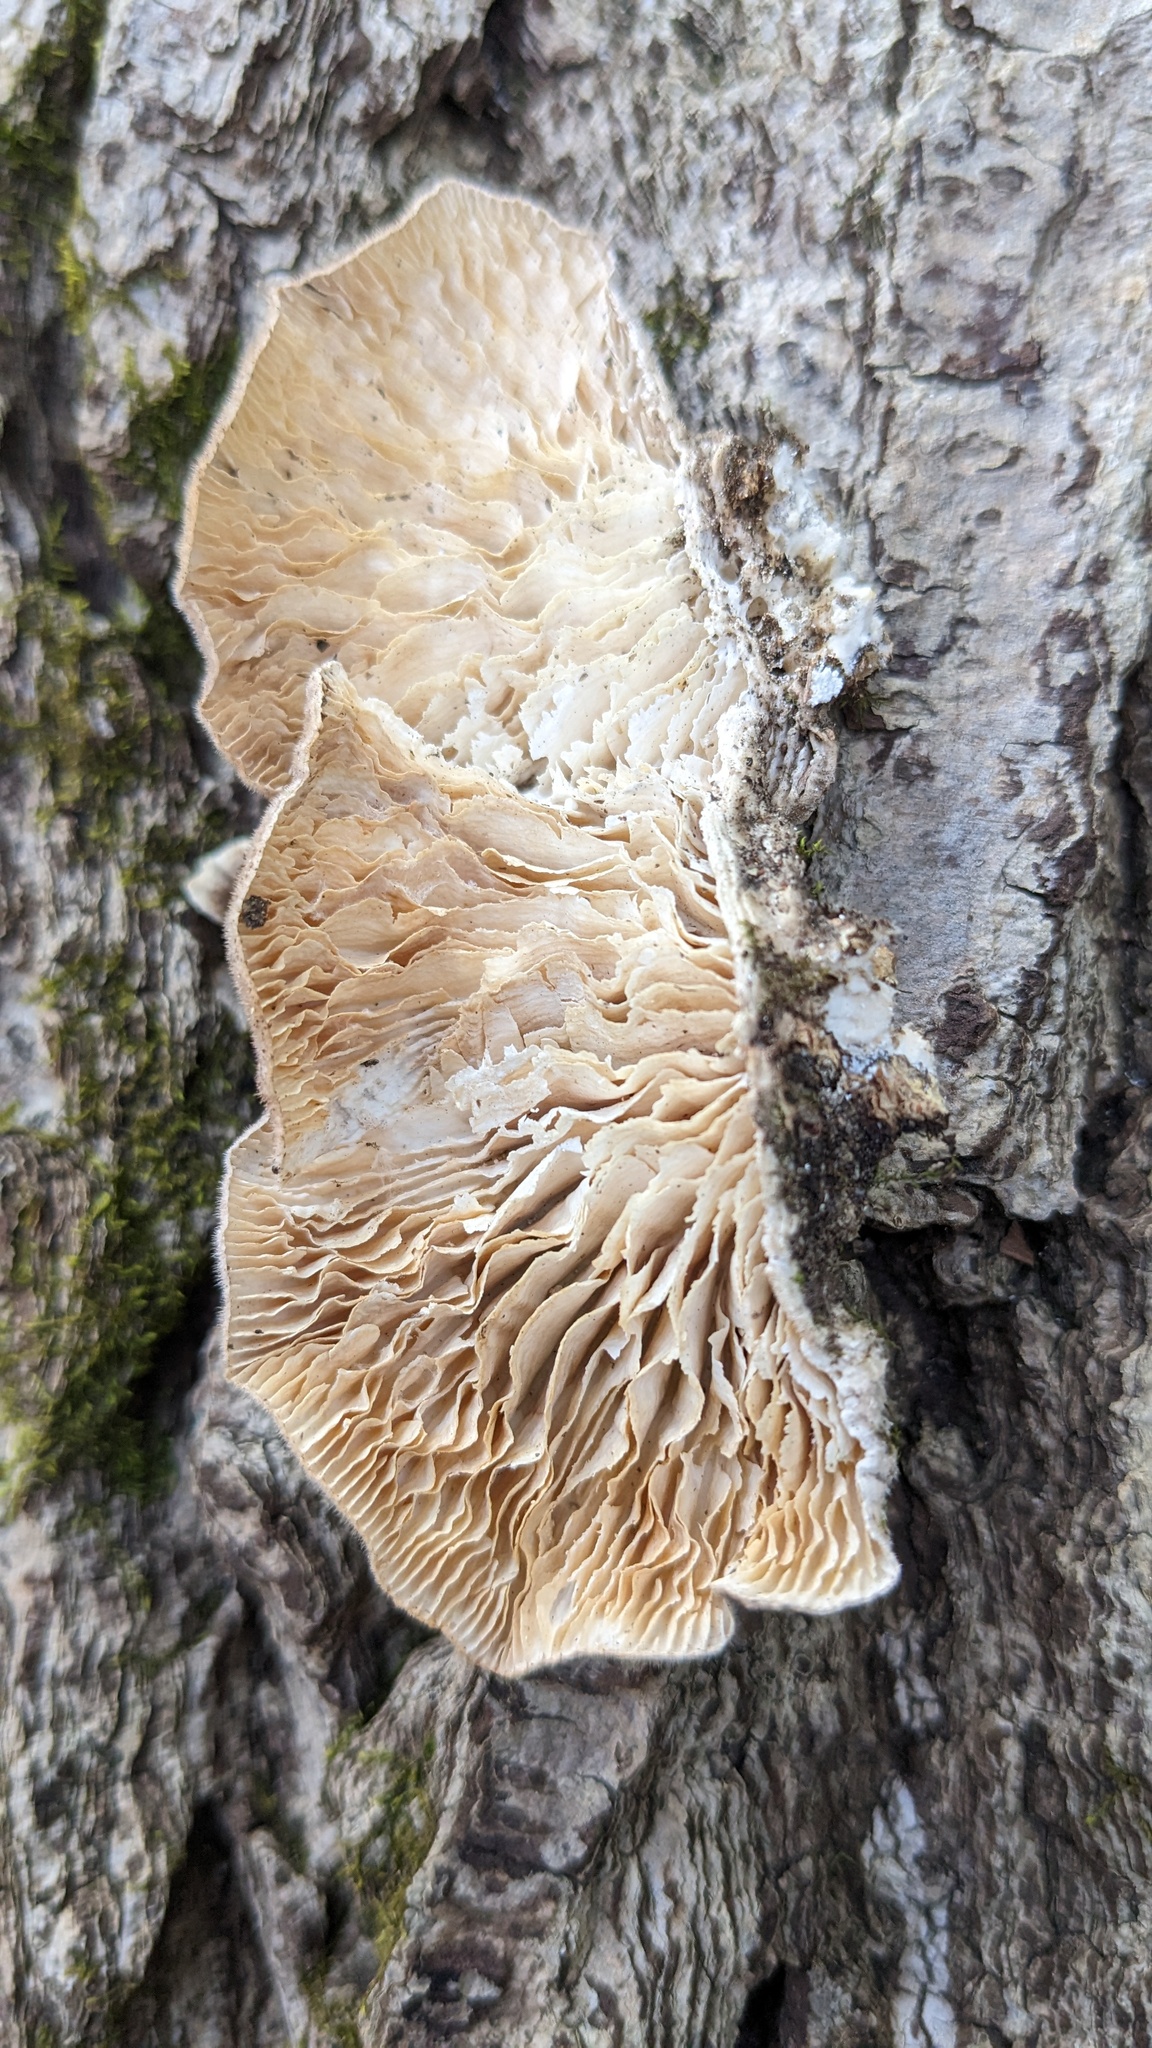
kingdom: Fungi
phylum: Basidiomycota
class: Agaricomycetes
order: Polyporales
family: Polyporaceae
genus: Lenzites
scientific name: Lenzites betulinus
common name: Birch mazegill
